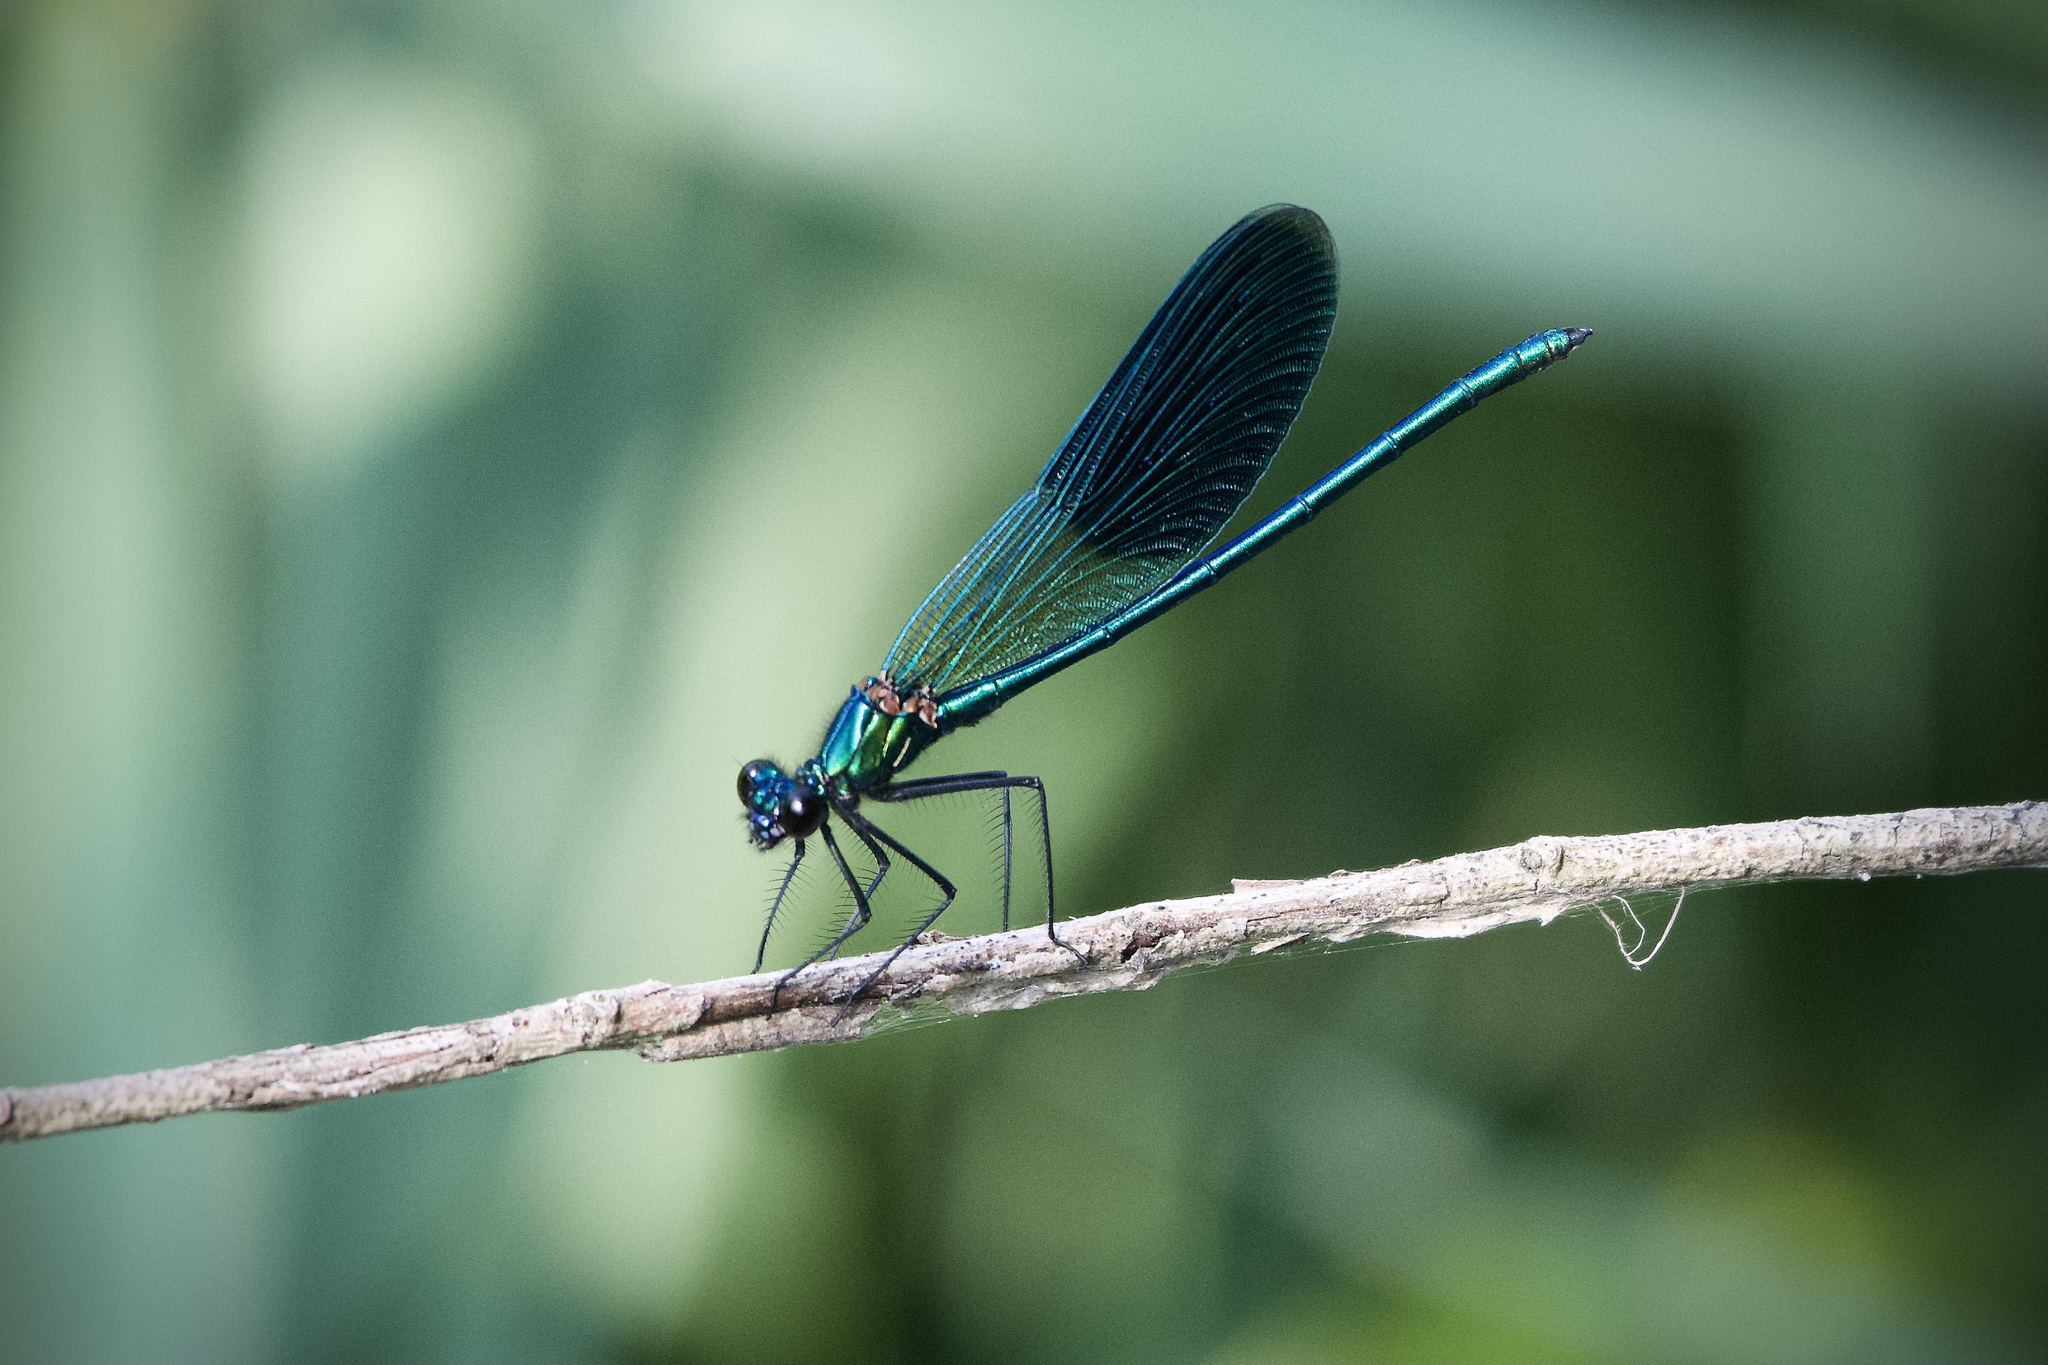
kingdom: Animalia
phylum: Arthropoda
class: Insecta
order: Odonata
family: Calopterygidae
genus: Calopteryx
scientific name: Calopteryx splendens
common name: Banded demoiselle
